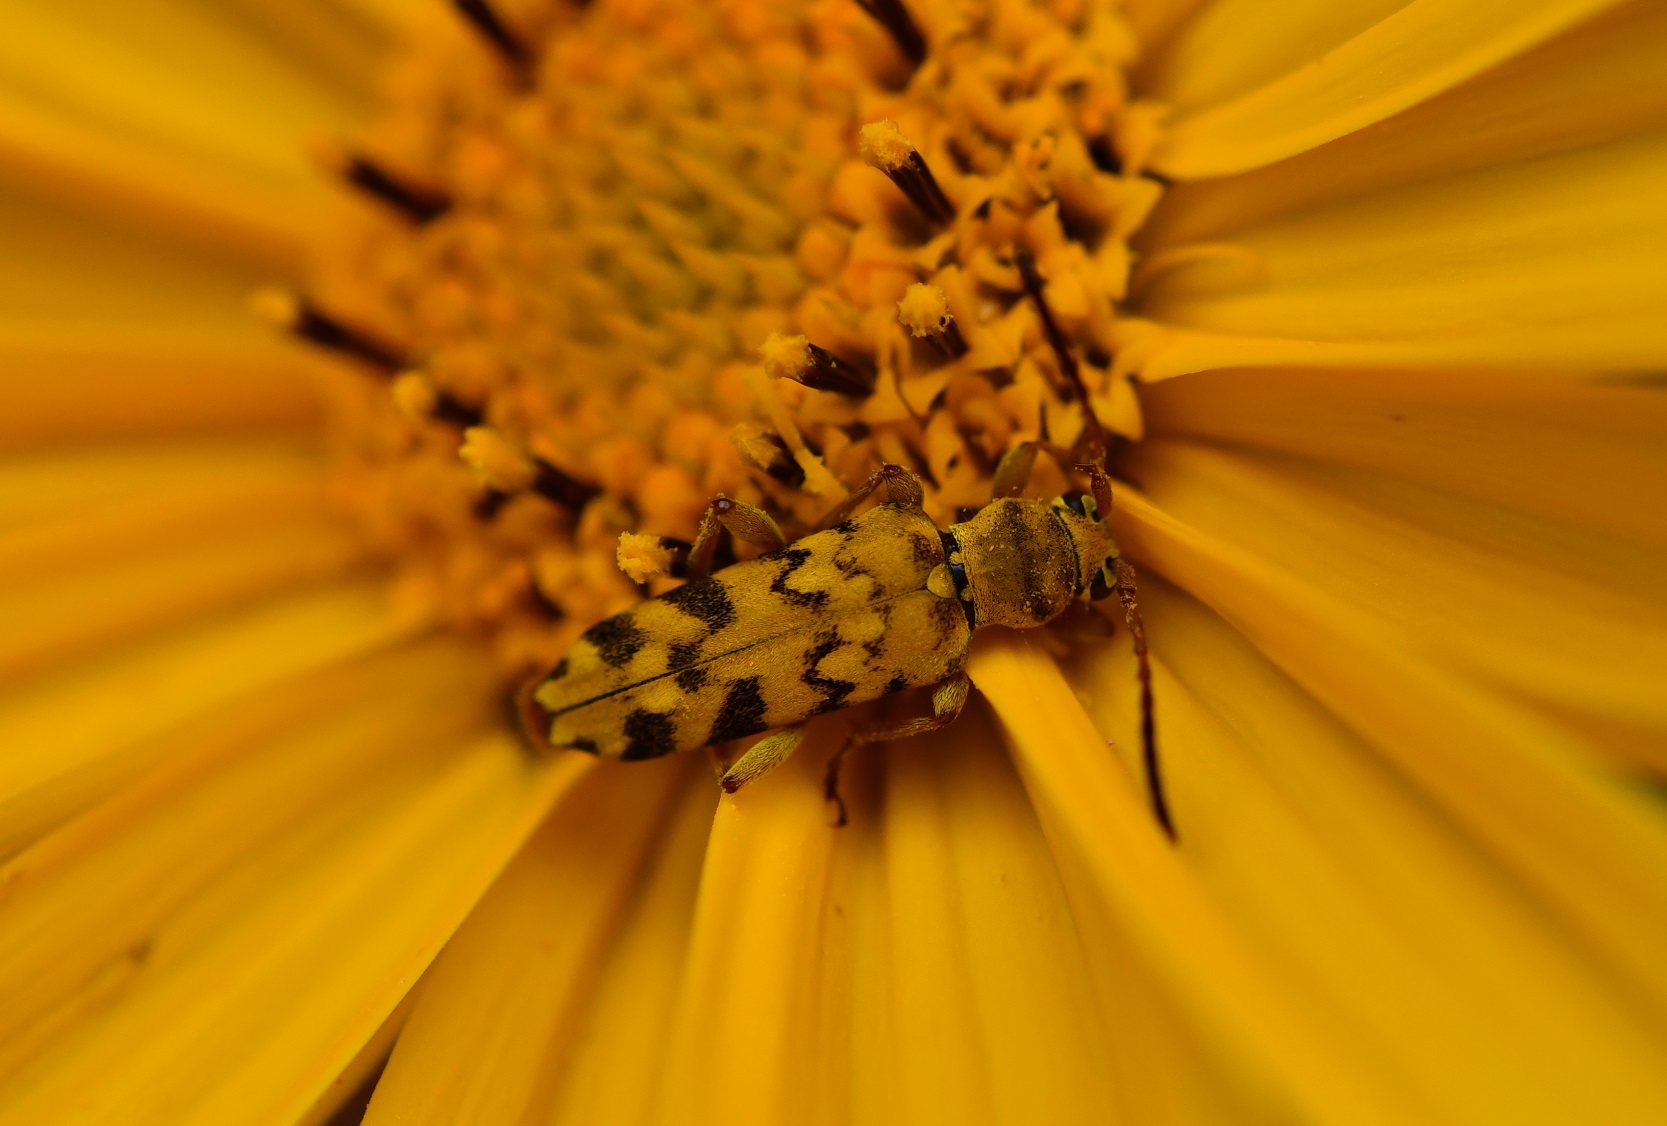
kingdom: Animalia
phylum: Arthropoda
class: Insecta
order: Coleoptera
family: Cerambycidae
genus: Ochraethes
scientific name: Ochraethes pollinosus
